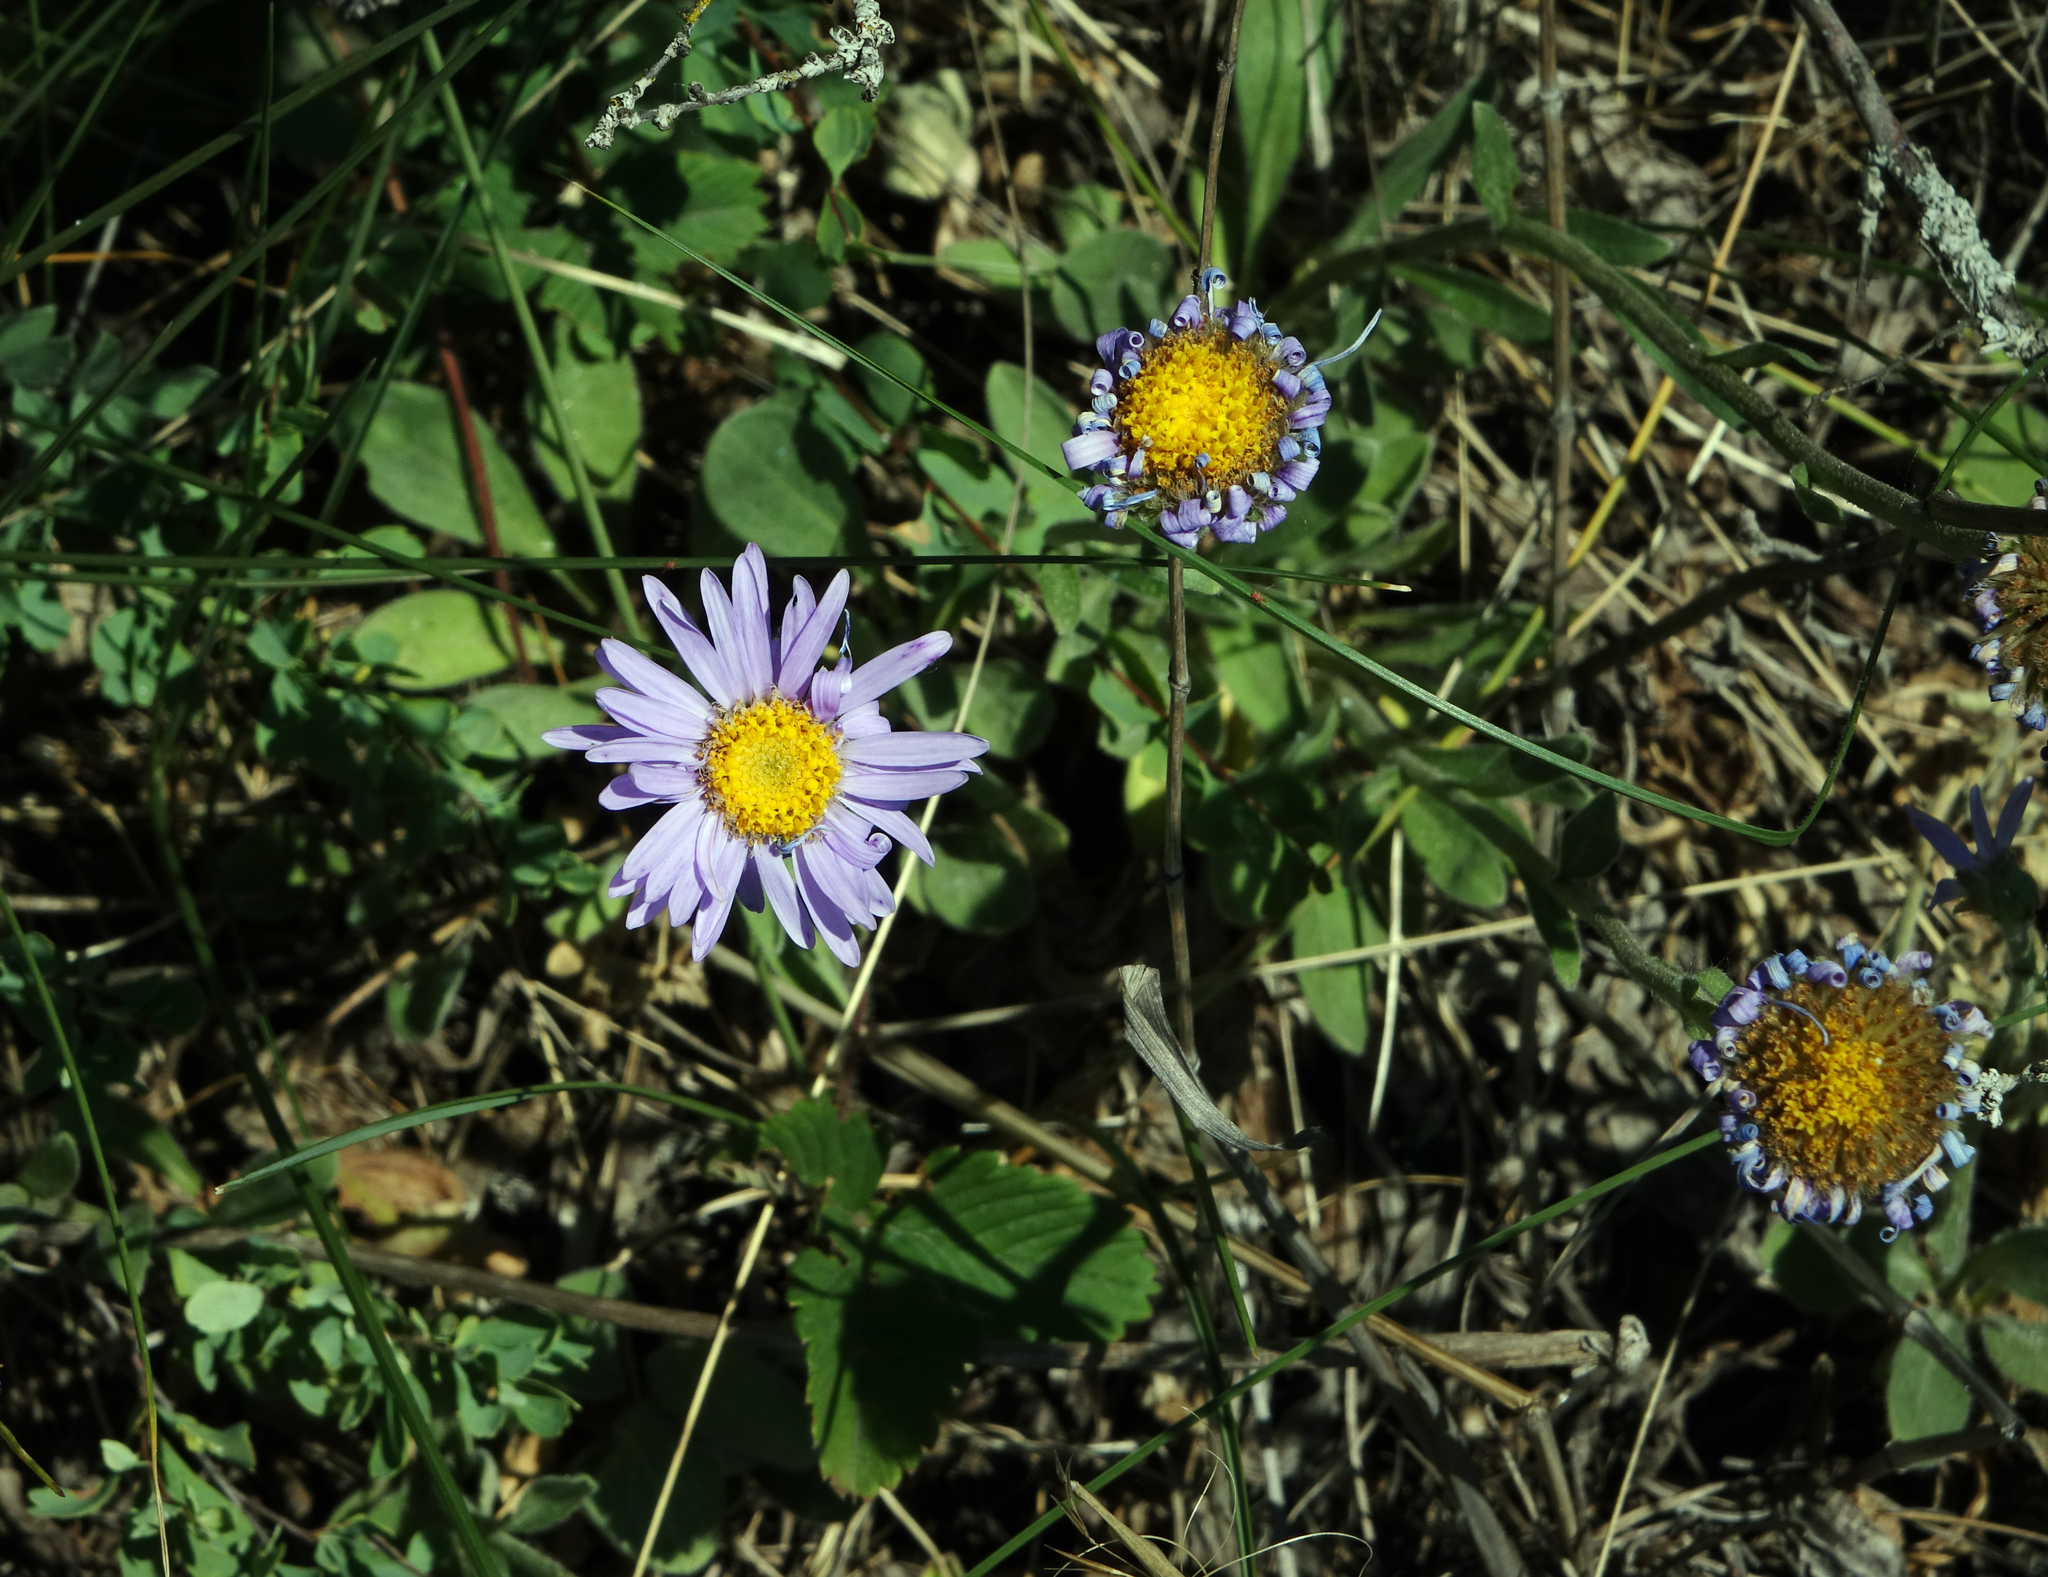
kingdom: Plantae
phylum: Tracheophyta
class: Magnoliopsida
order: Asterales
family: Asteraceae
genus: Aster
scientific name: Aster alpinus
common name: Alpine aster
